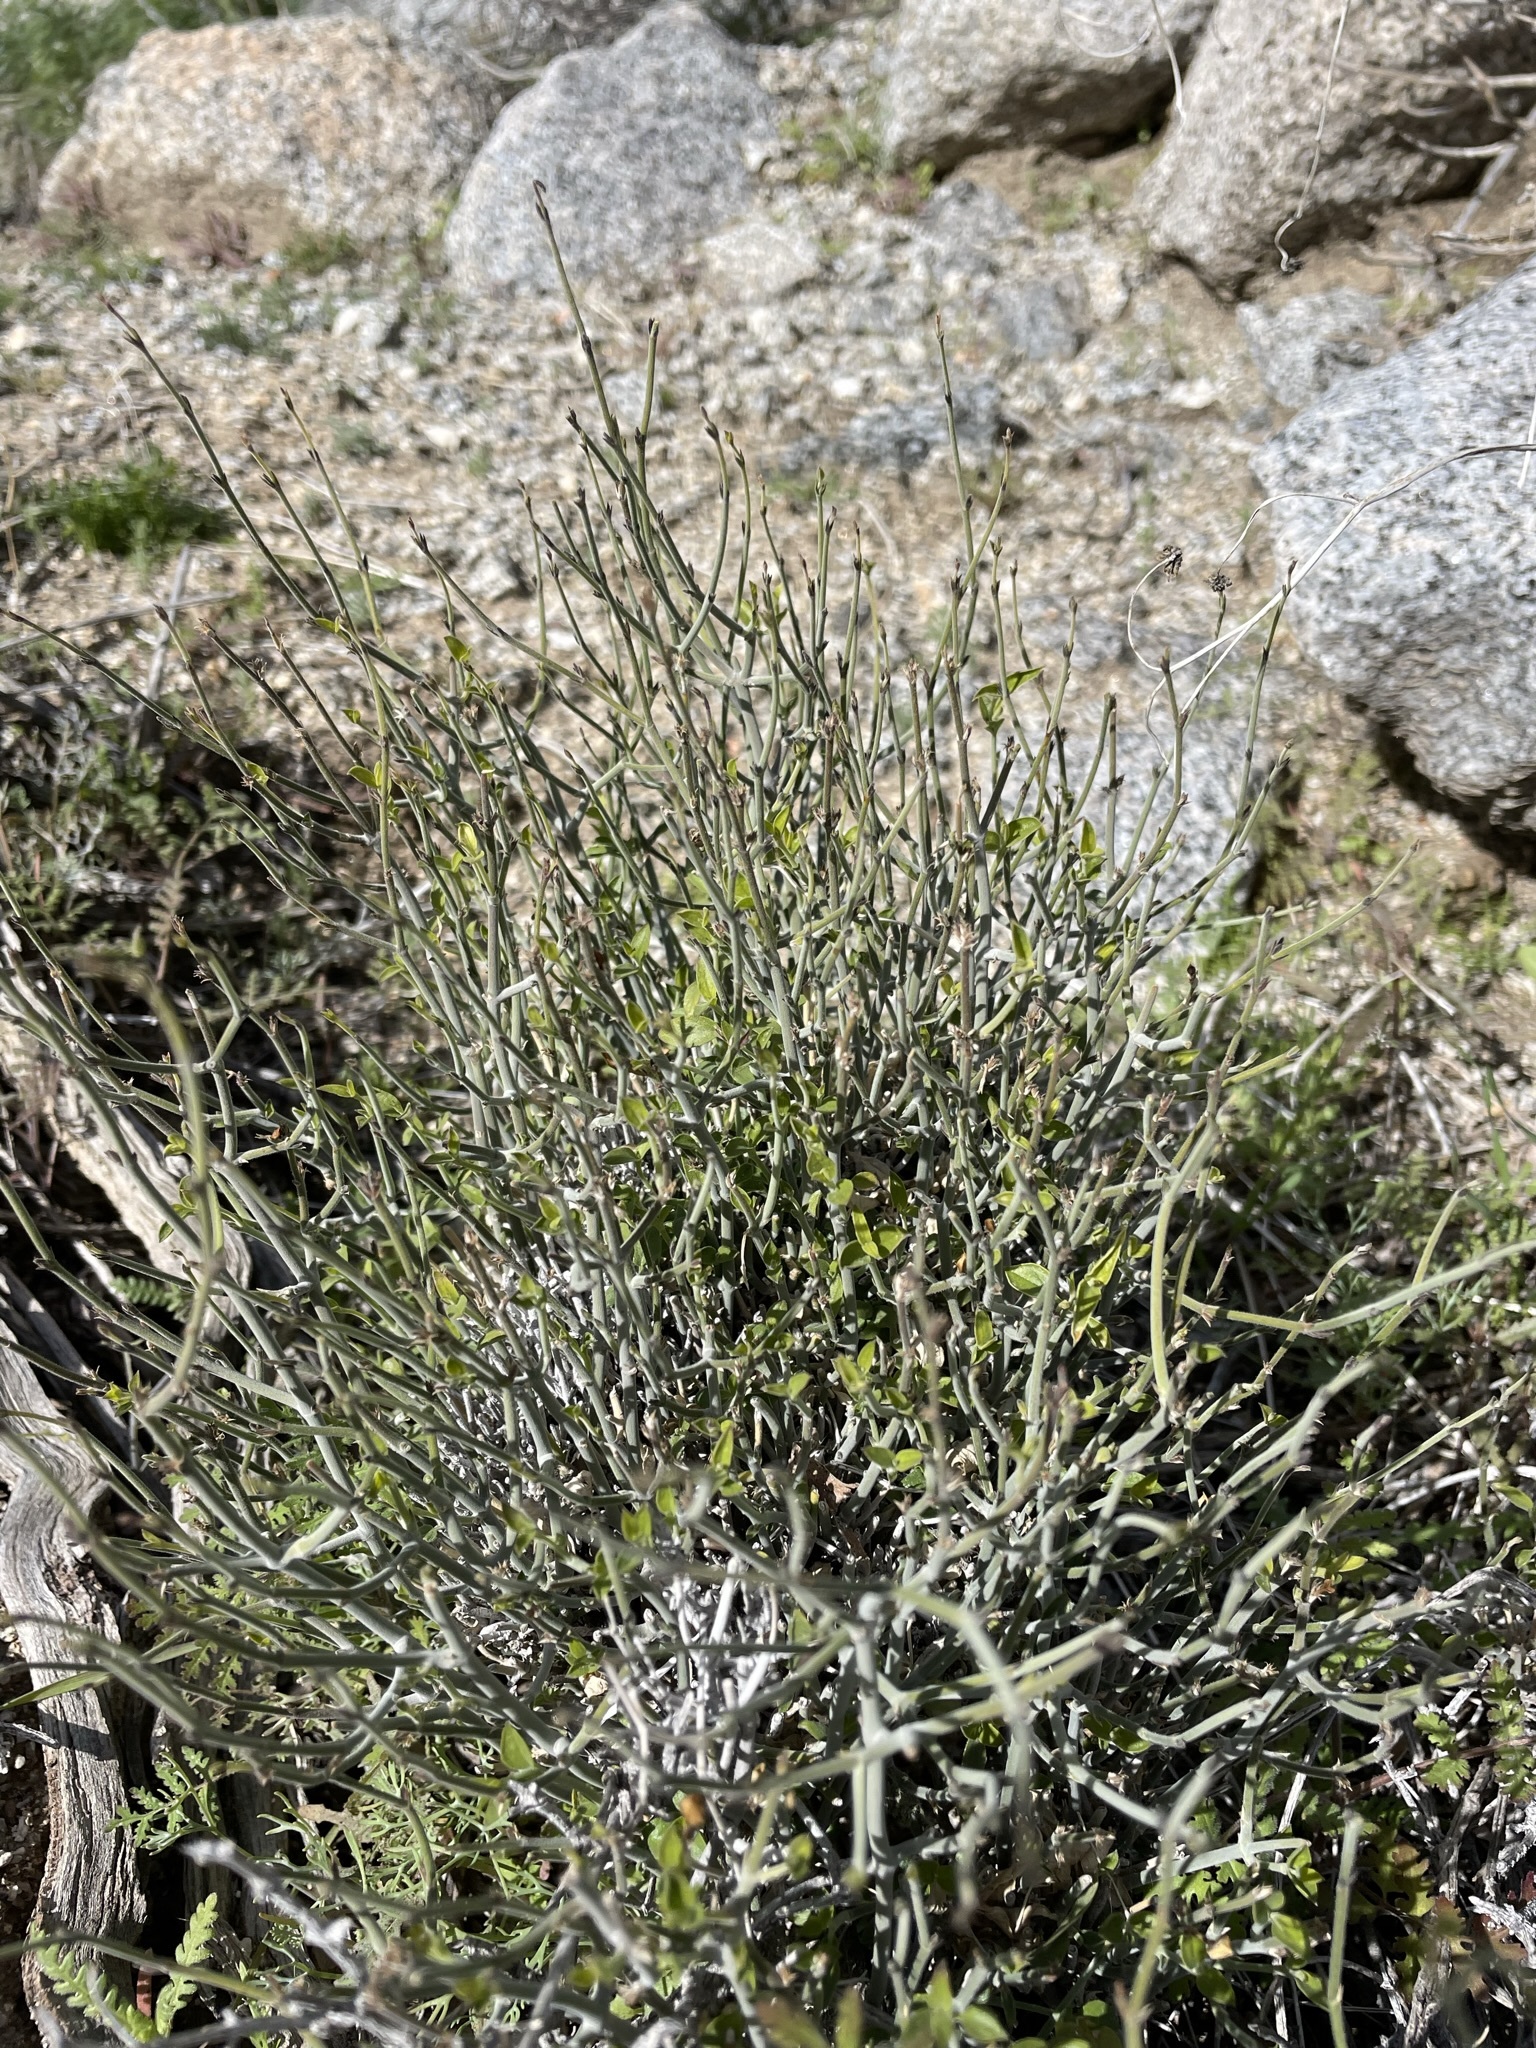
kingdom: Plantae
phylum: Tracheophyta
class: Magnoliopsida
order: Lamiales
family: Acanthaceae
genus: Carlowrightia
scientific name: Carlowrightia arizonica
